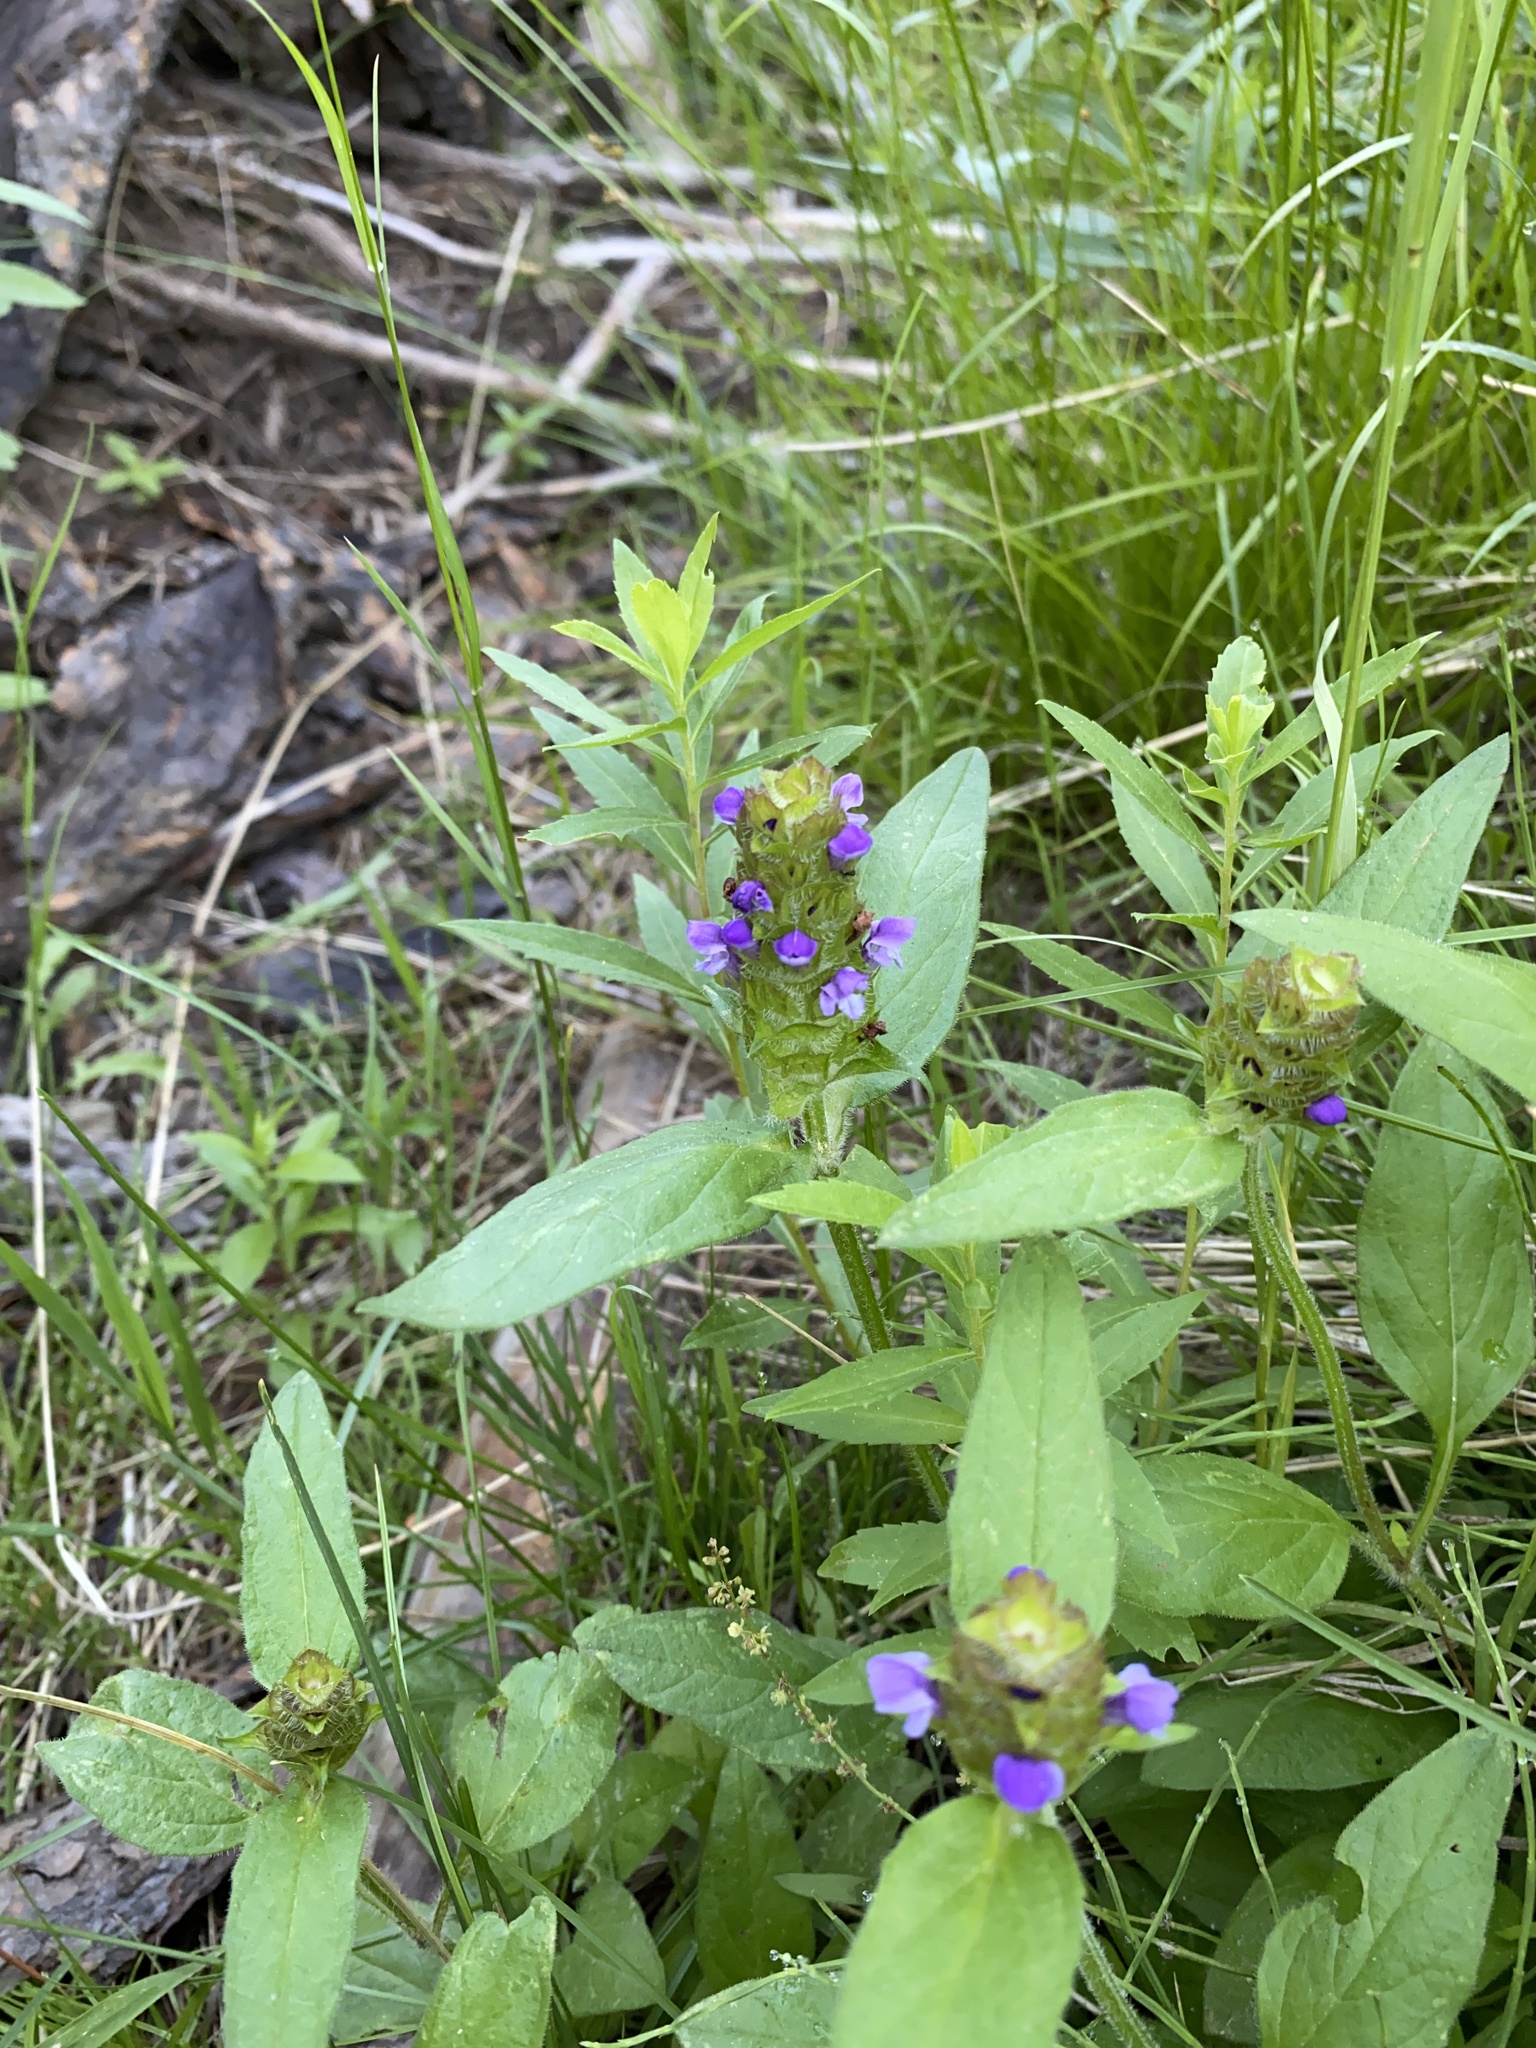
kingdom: Plantae
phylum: Tracheophyta
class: Magnoliopsida
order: Lamiales
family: Lamiaceae
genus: Prunella
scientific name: Prunella vulgaris
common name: Heal-all
